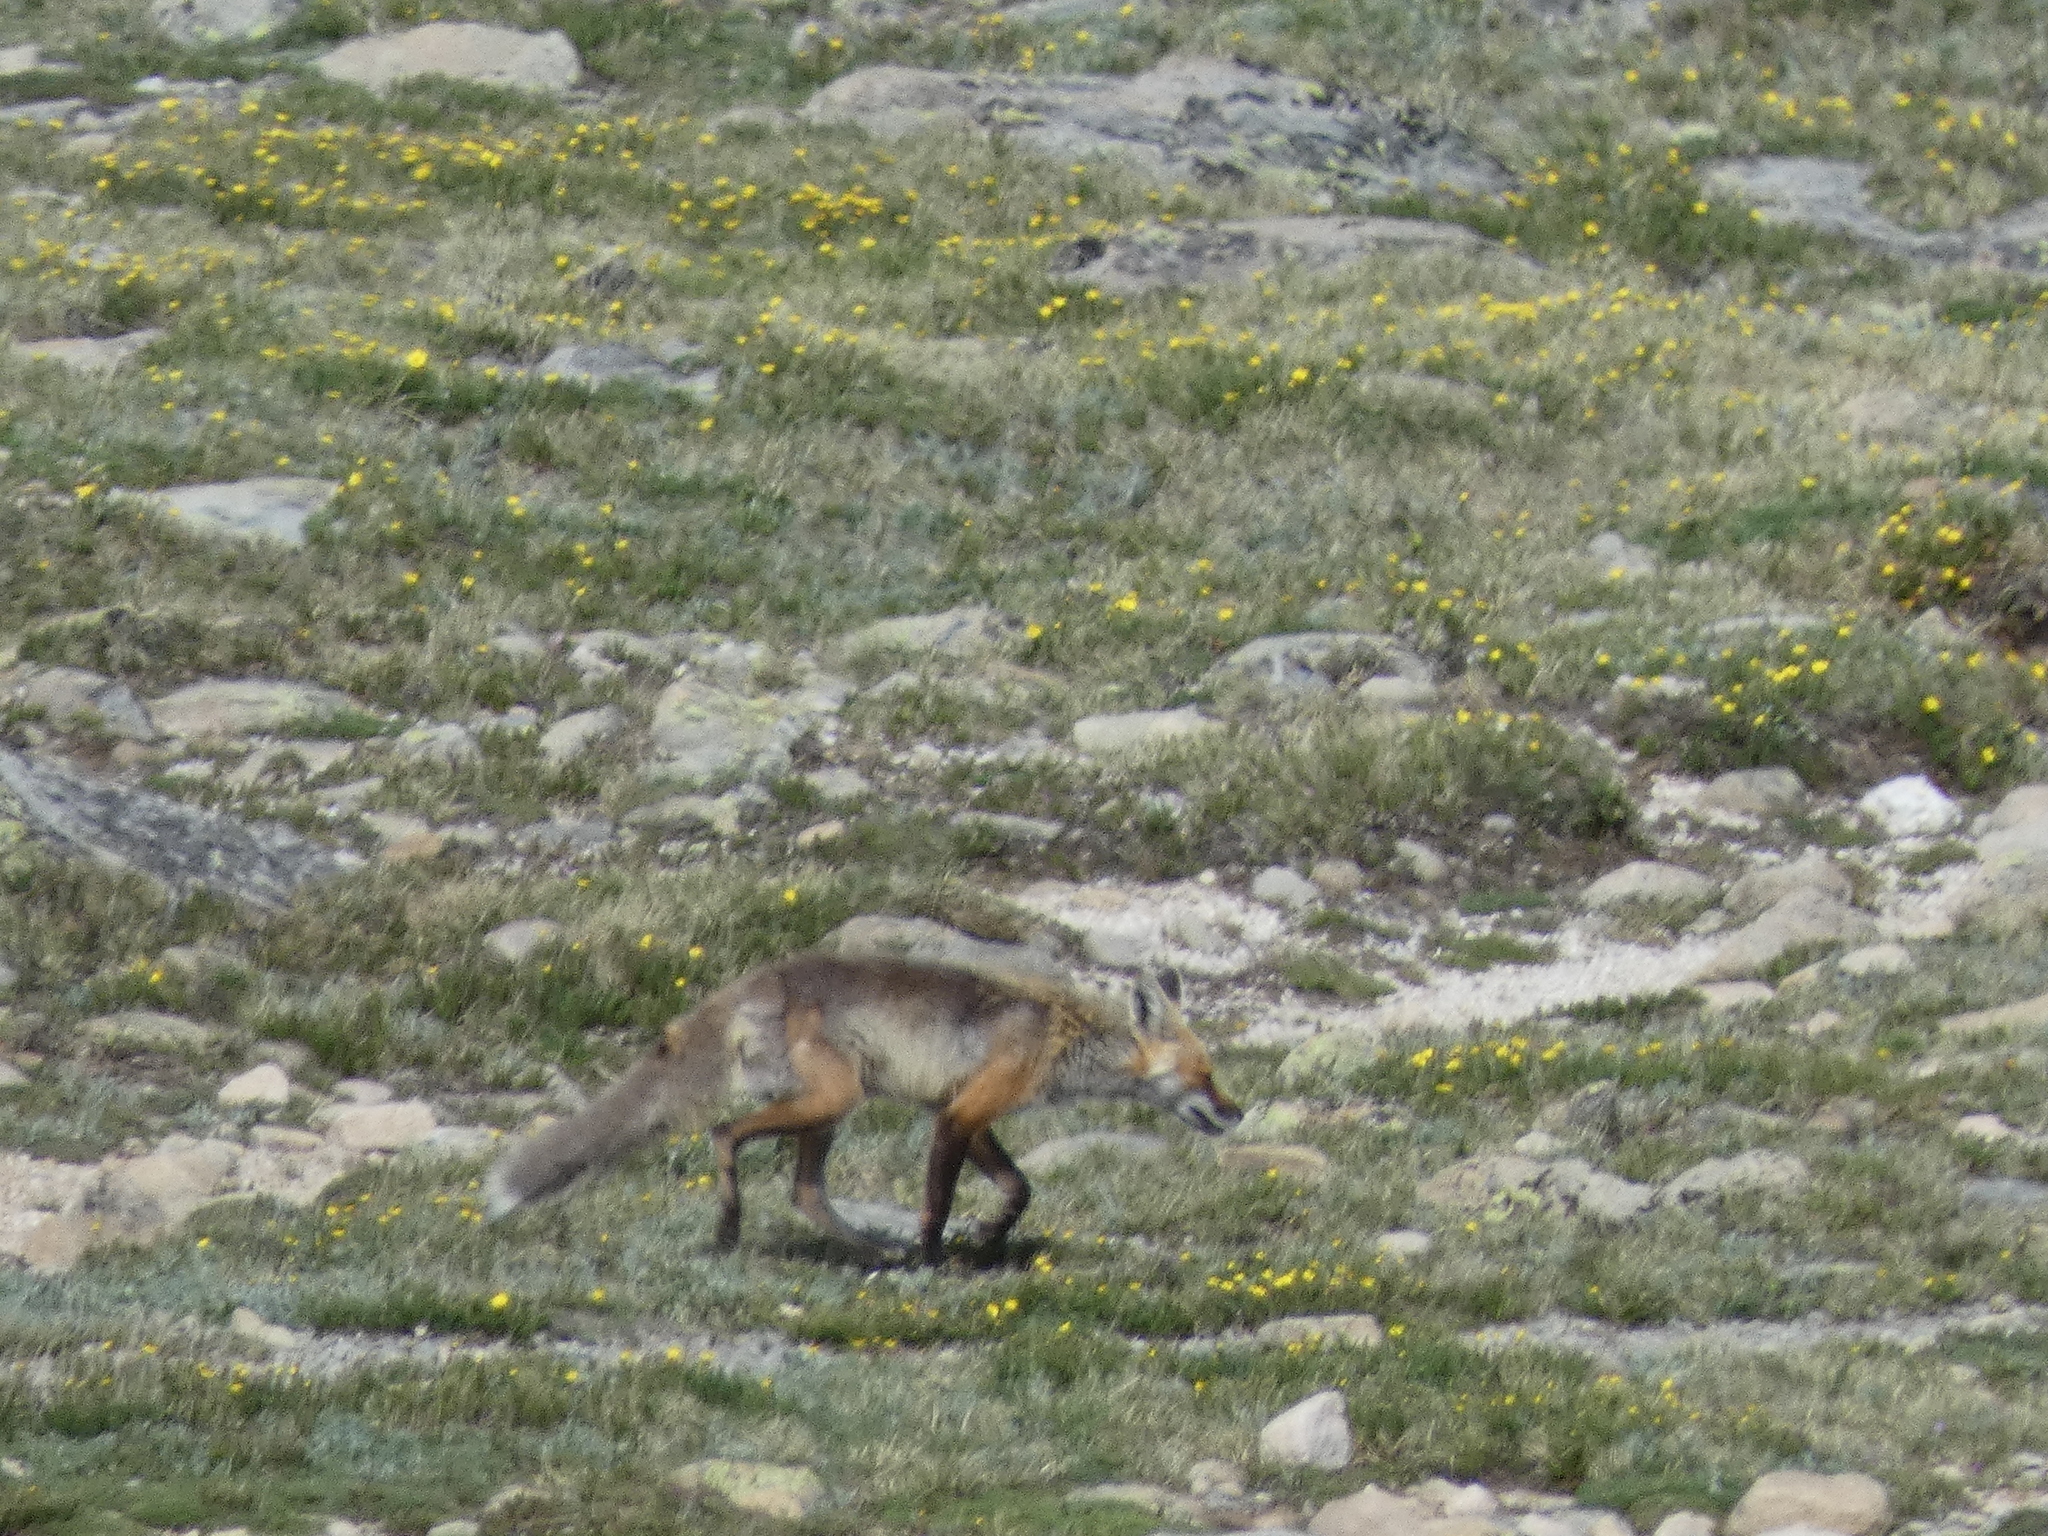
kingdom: Animalia
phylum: Chordata
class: Mammalia
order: Carnivora
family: Canidae
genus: Vulpes
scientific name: Vulpes vulpes
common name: Red fox
